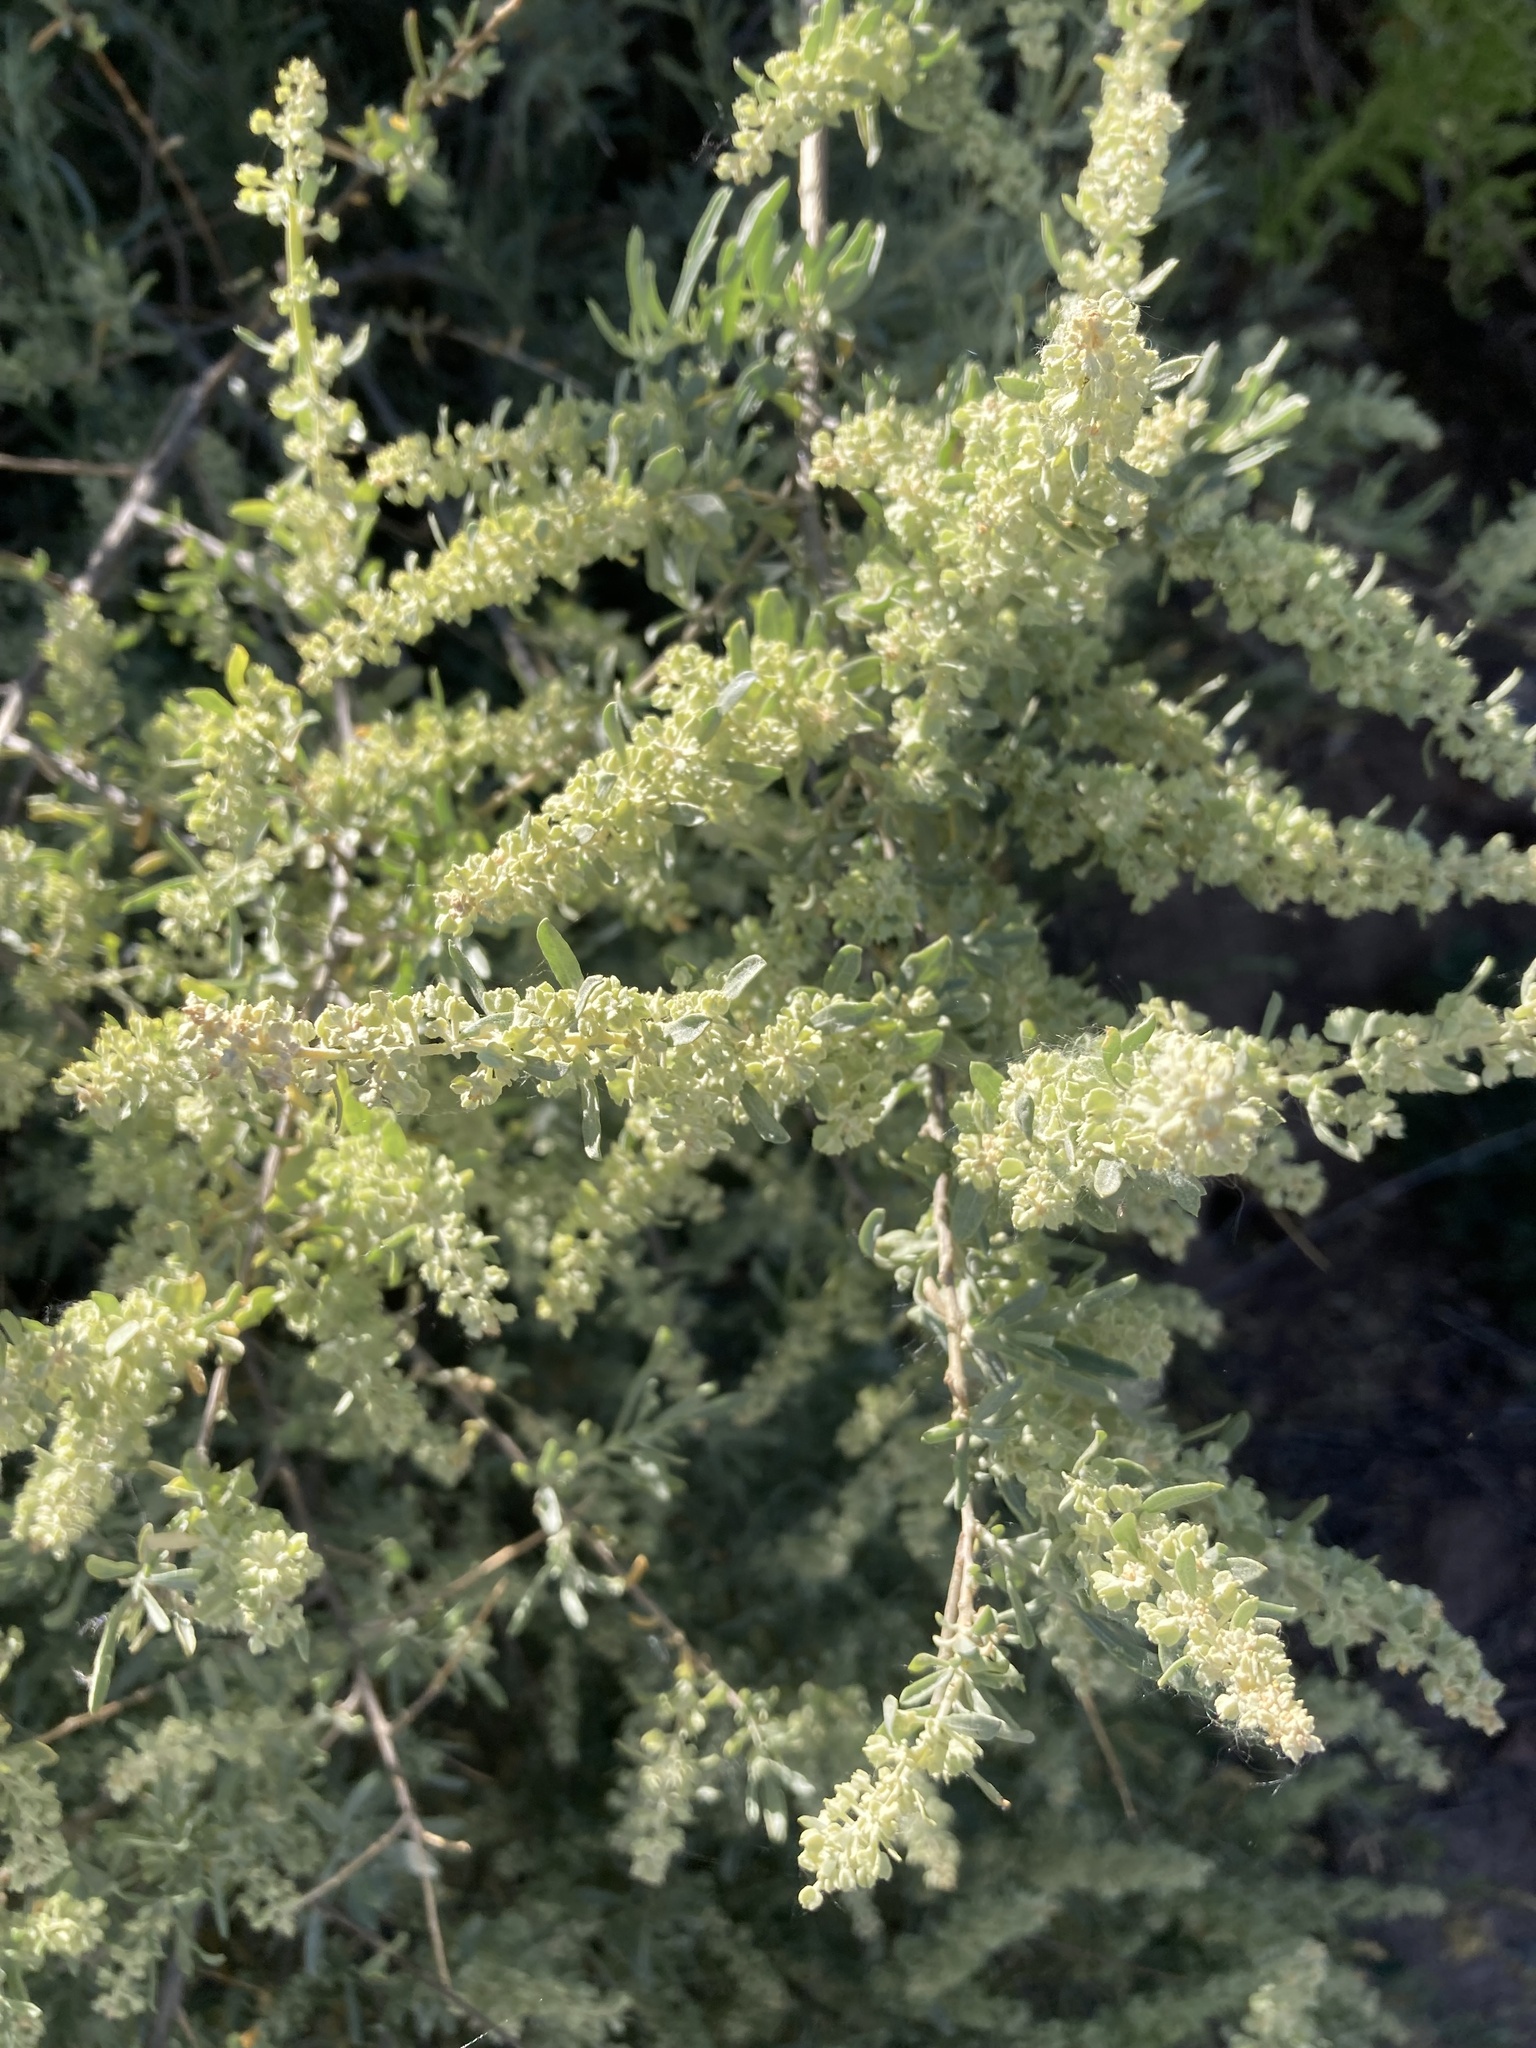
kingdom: Plantae
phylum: Tracheophyta
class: Magnoliopsida
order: Caryophyllales
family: Amaranthaceae
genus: Atriplex
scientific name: Atriplex canescens
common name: Four-wing saltbush
